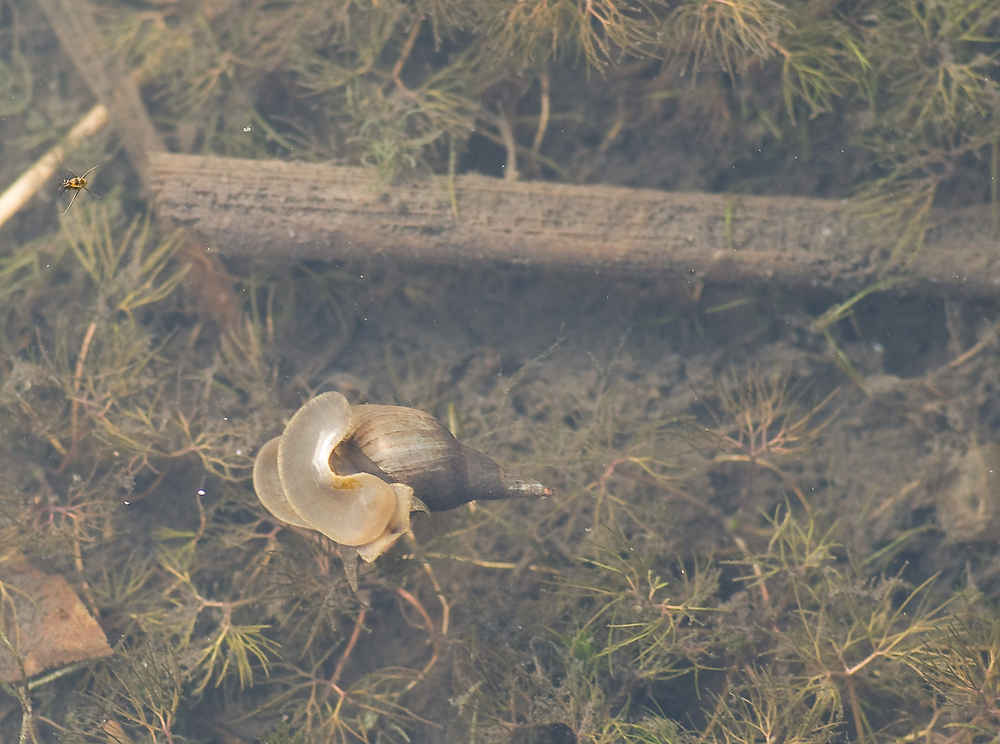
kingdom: Animalia
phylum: Mollusca
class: Gastropoda
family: Lymnaeidae
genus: Lymnaea
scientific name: Lymnaea stagnalis
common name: Great pond snail
